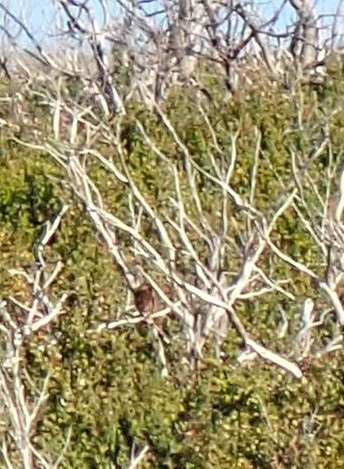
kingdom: Animalia
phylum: Chordata
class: Aves
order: Passeriformes
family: Maluridae
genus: Stipiturus
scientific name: Stipiturus malachurus
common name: Southern emu-wren
